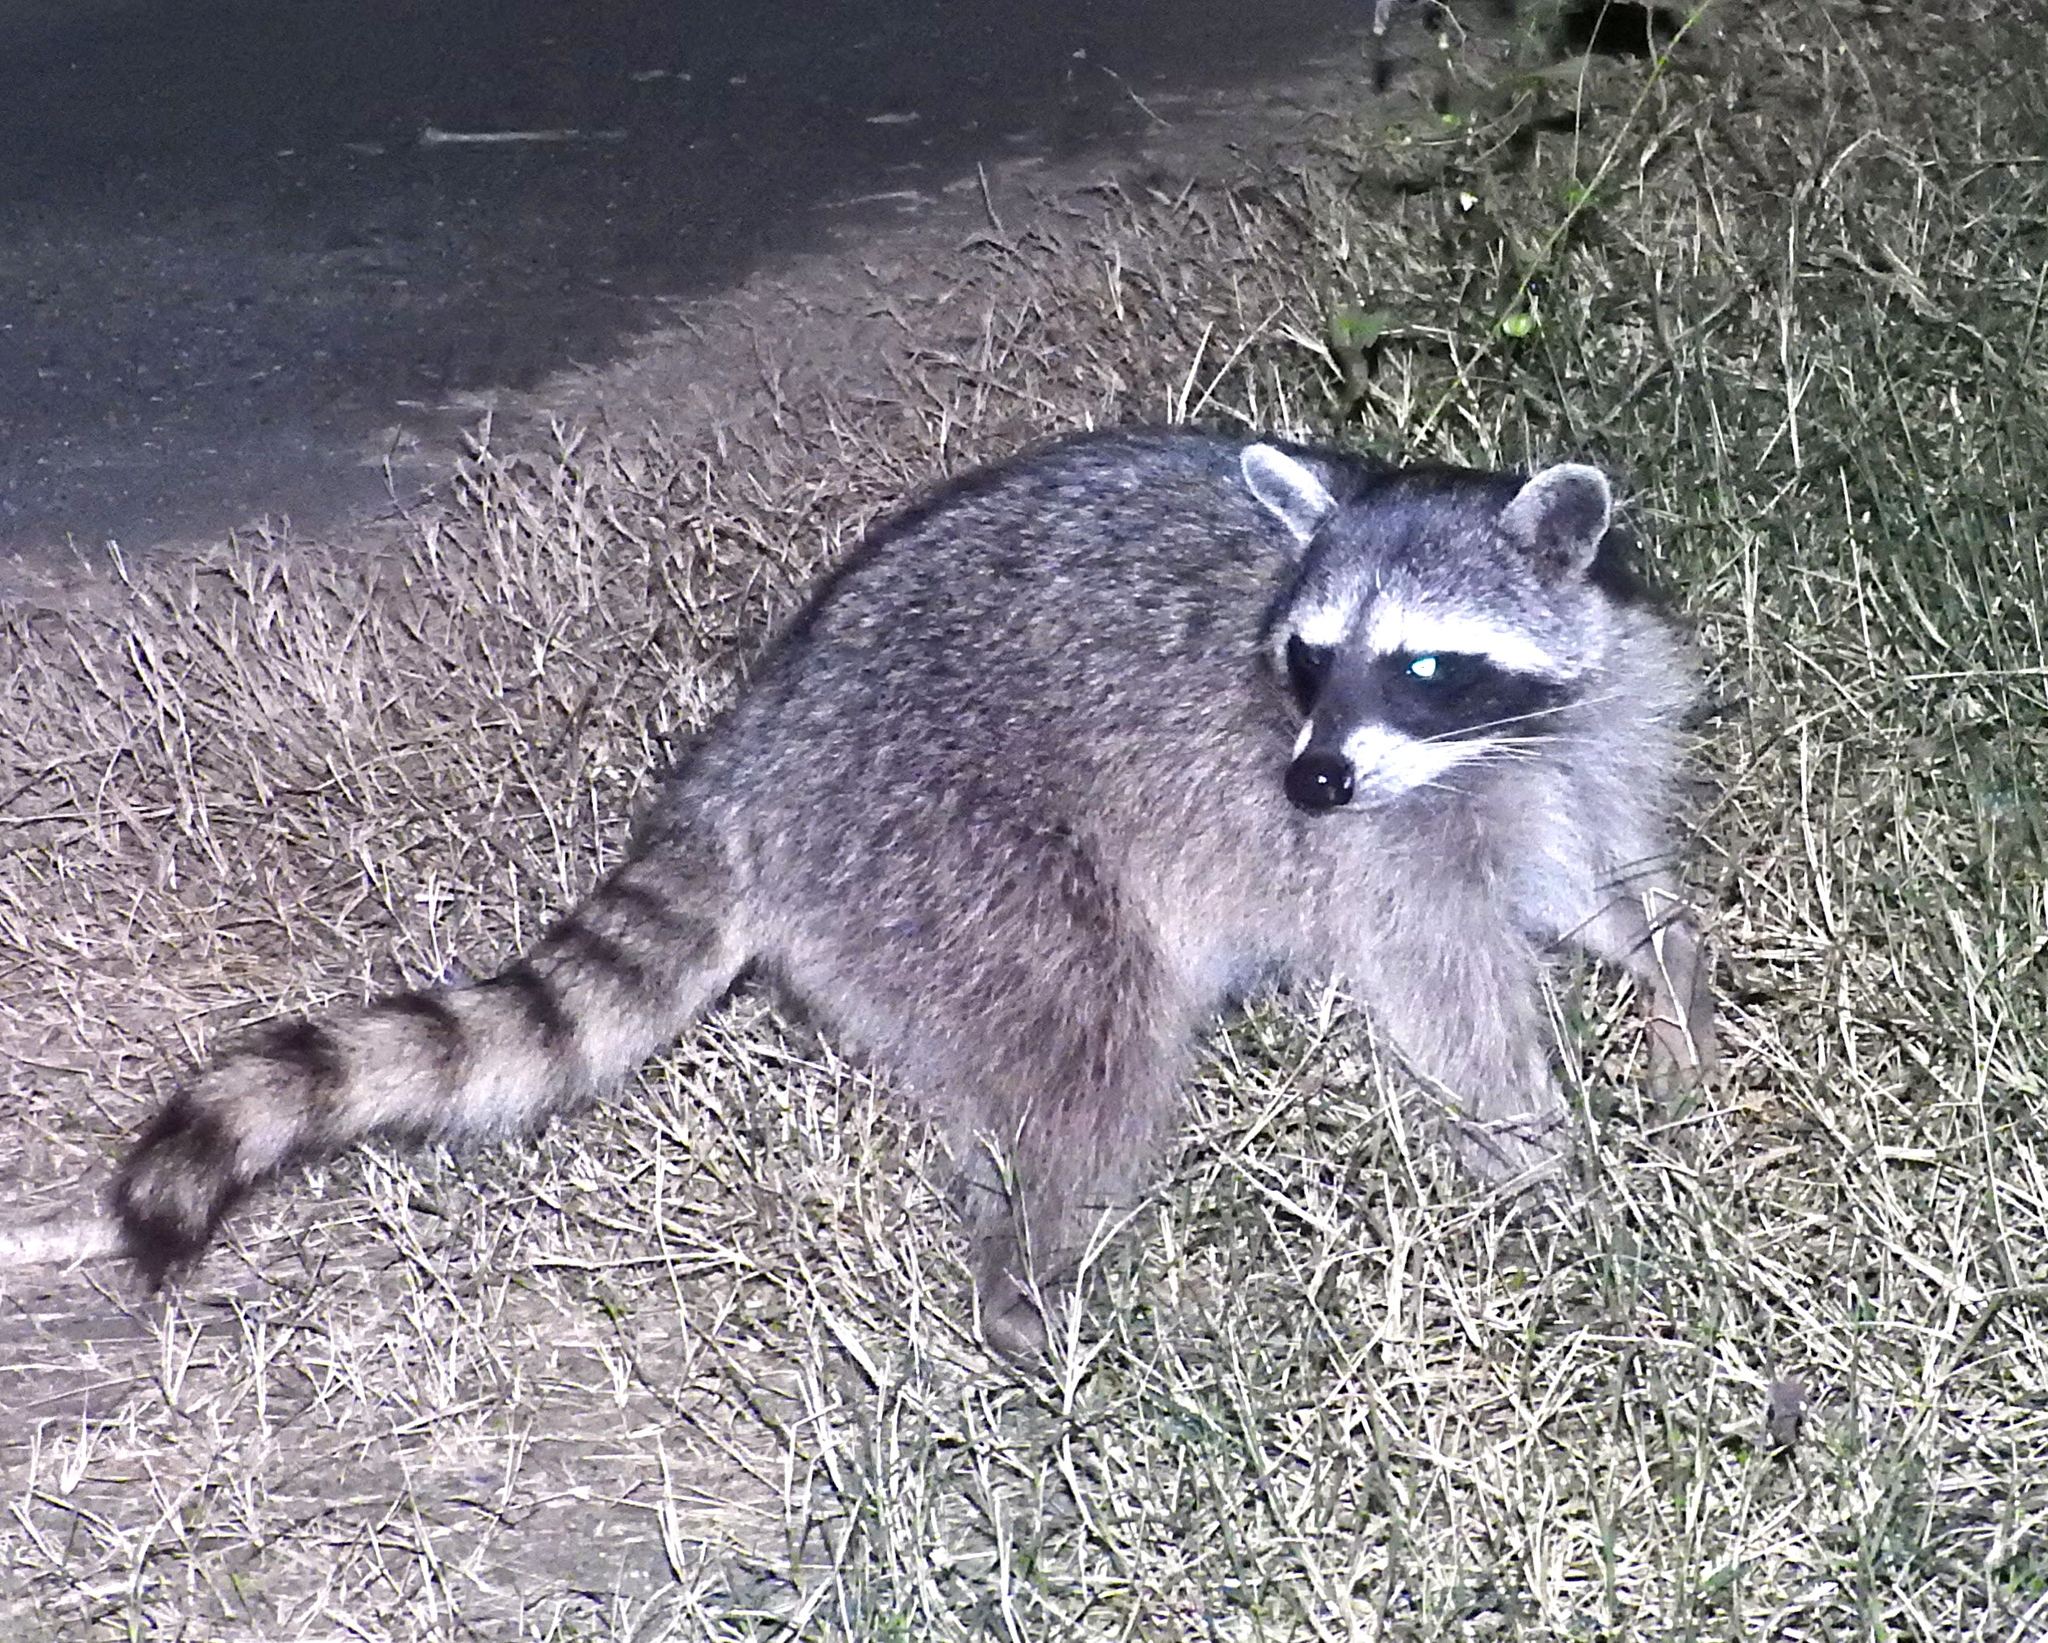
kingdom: Animalia
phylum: Chordata
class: Mammalia
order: Carnivora
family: Procyonidae
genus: Procyon
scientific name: Procyon lotor
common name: Raccoon
